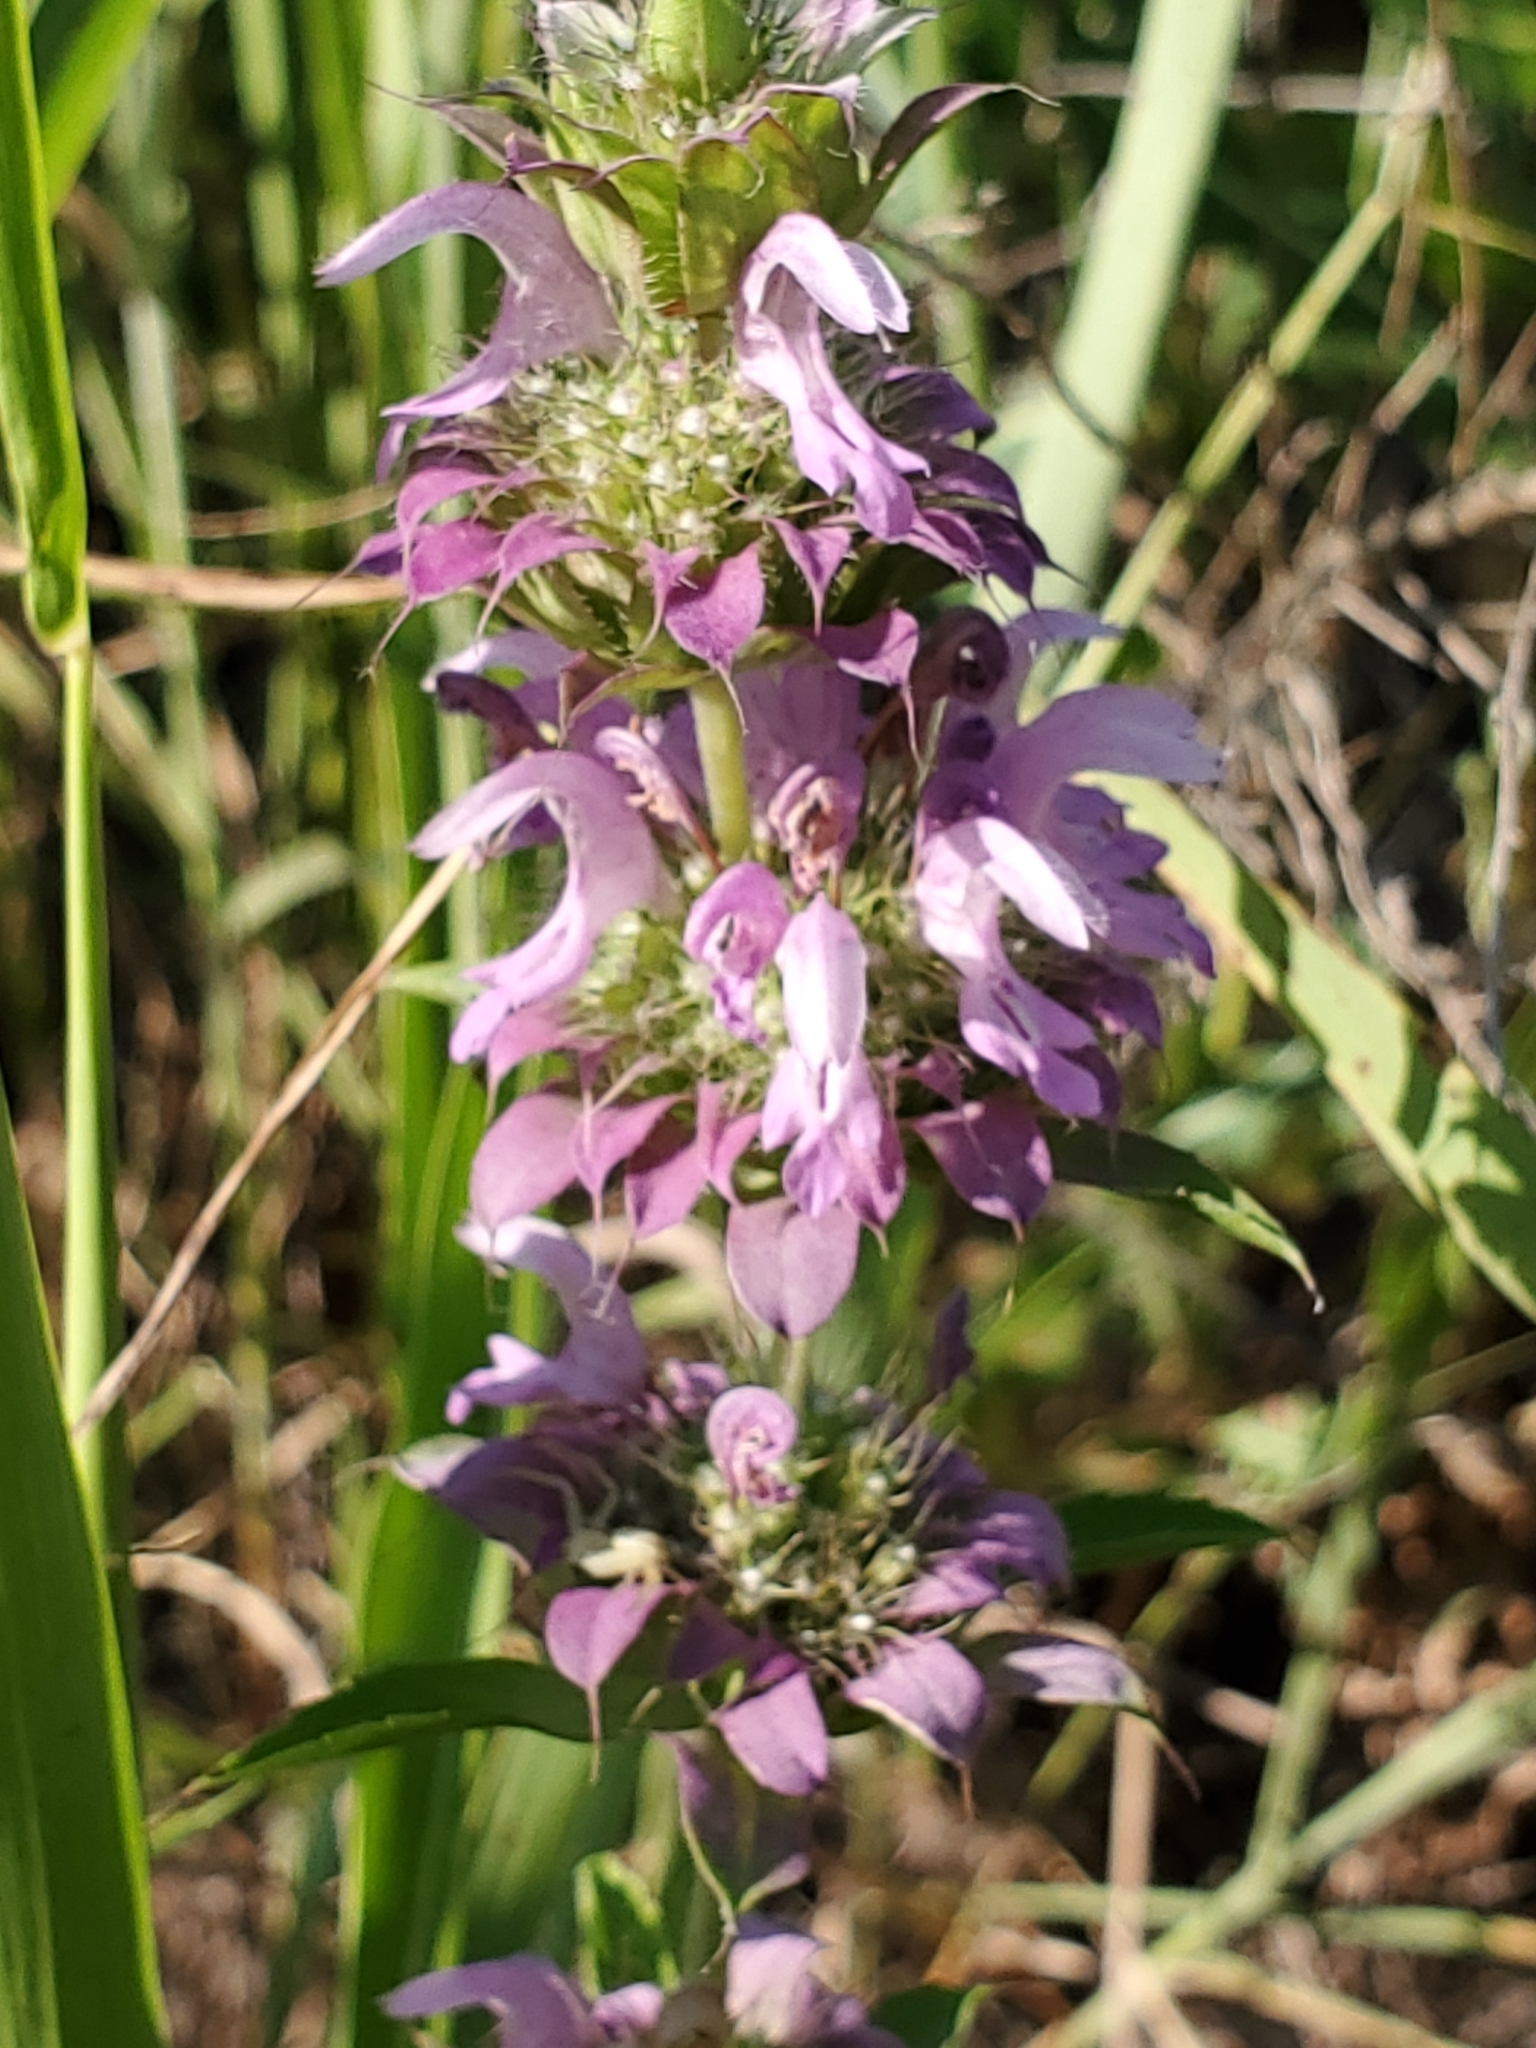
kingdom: Plantae
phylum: Tracheophyta
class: Magnoliopsida
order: Lamiales
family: Lamiaceae
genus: Monarda
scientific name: Monarda citriodora
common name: Lemon beebalm
